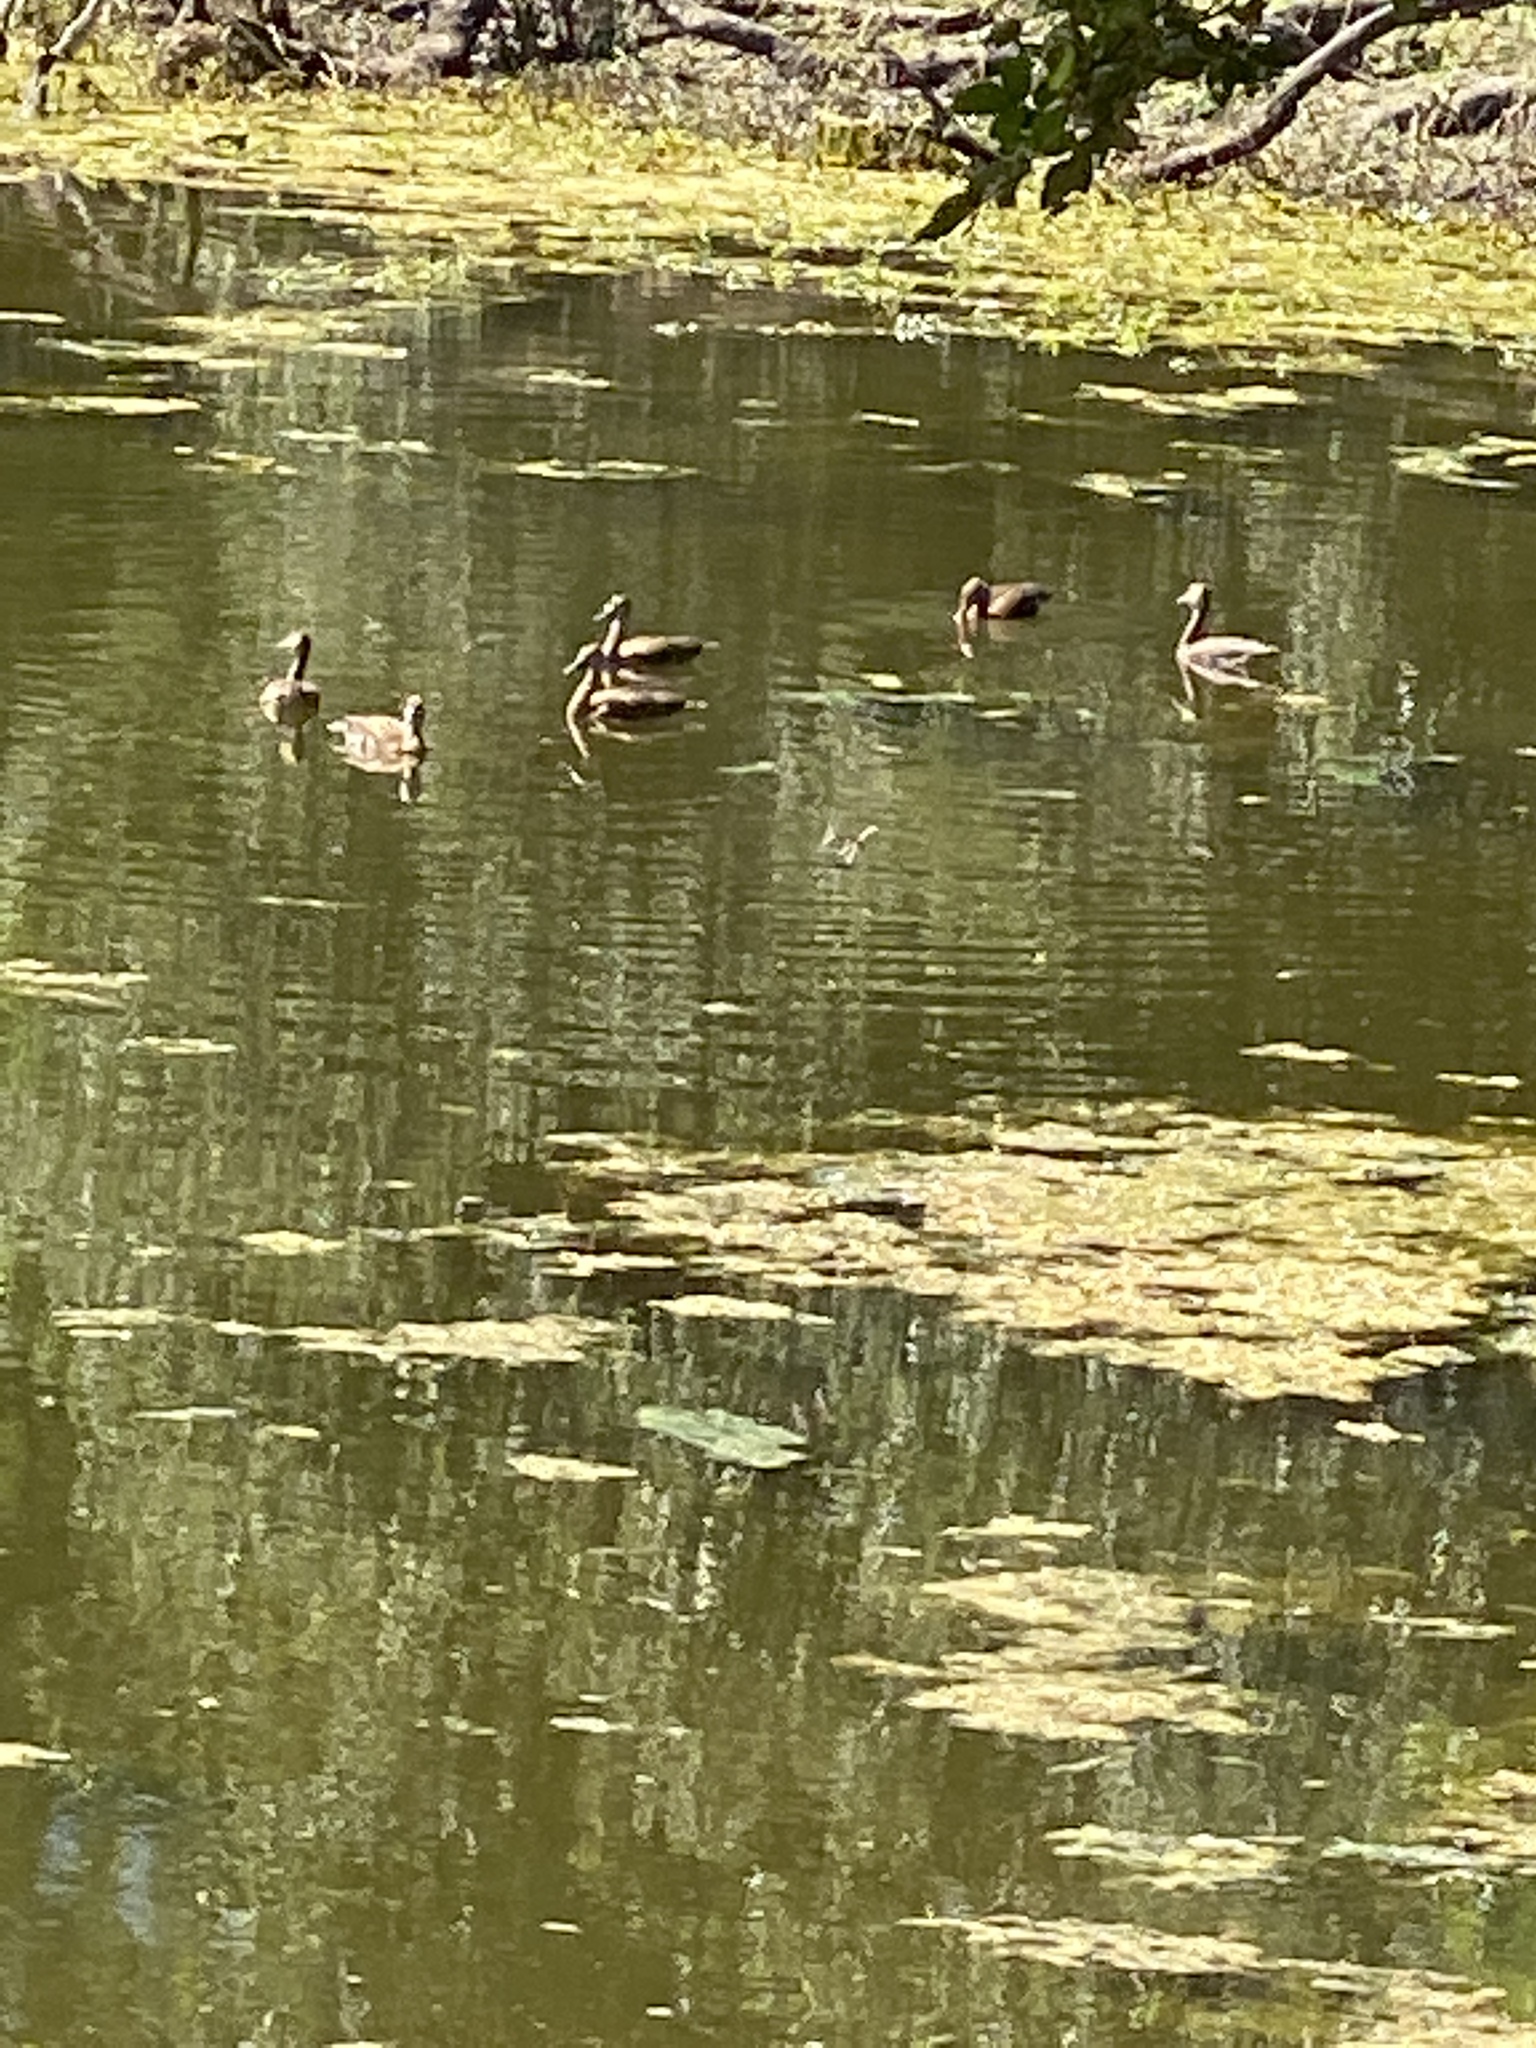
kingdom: Animalia
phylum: Chordata
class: Aves
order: Anseriformes
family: Anatidae
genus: Dendrocygna
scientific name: Dendrocygna autumnalis
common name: Black-bellied whistling duck
